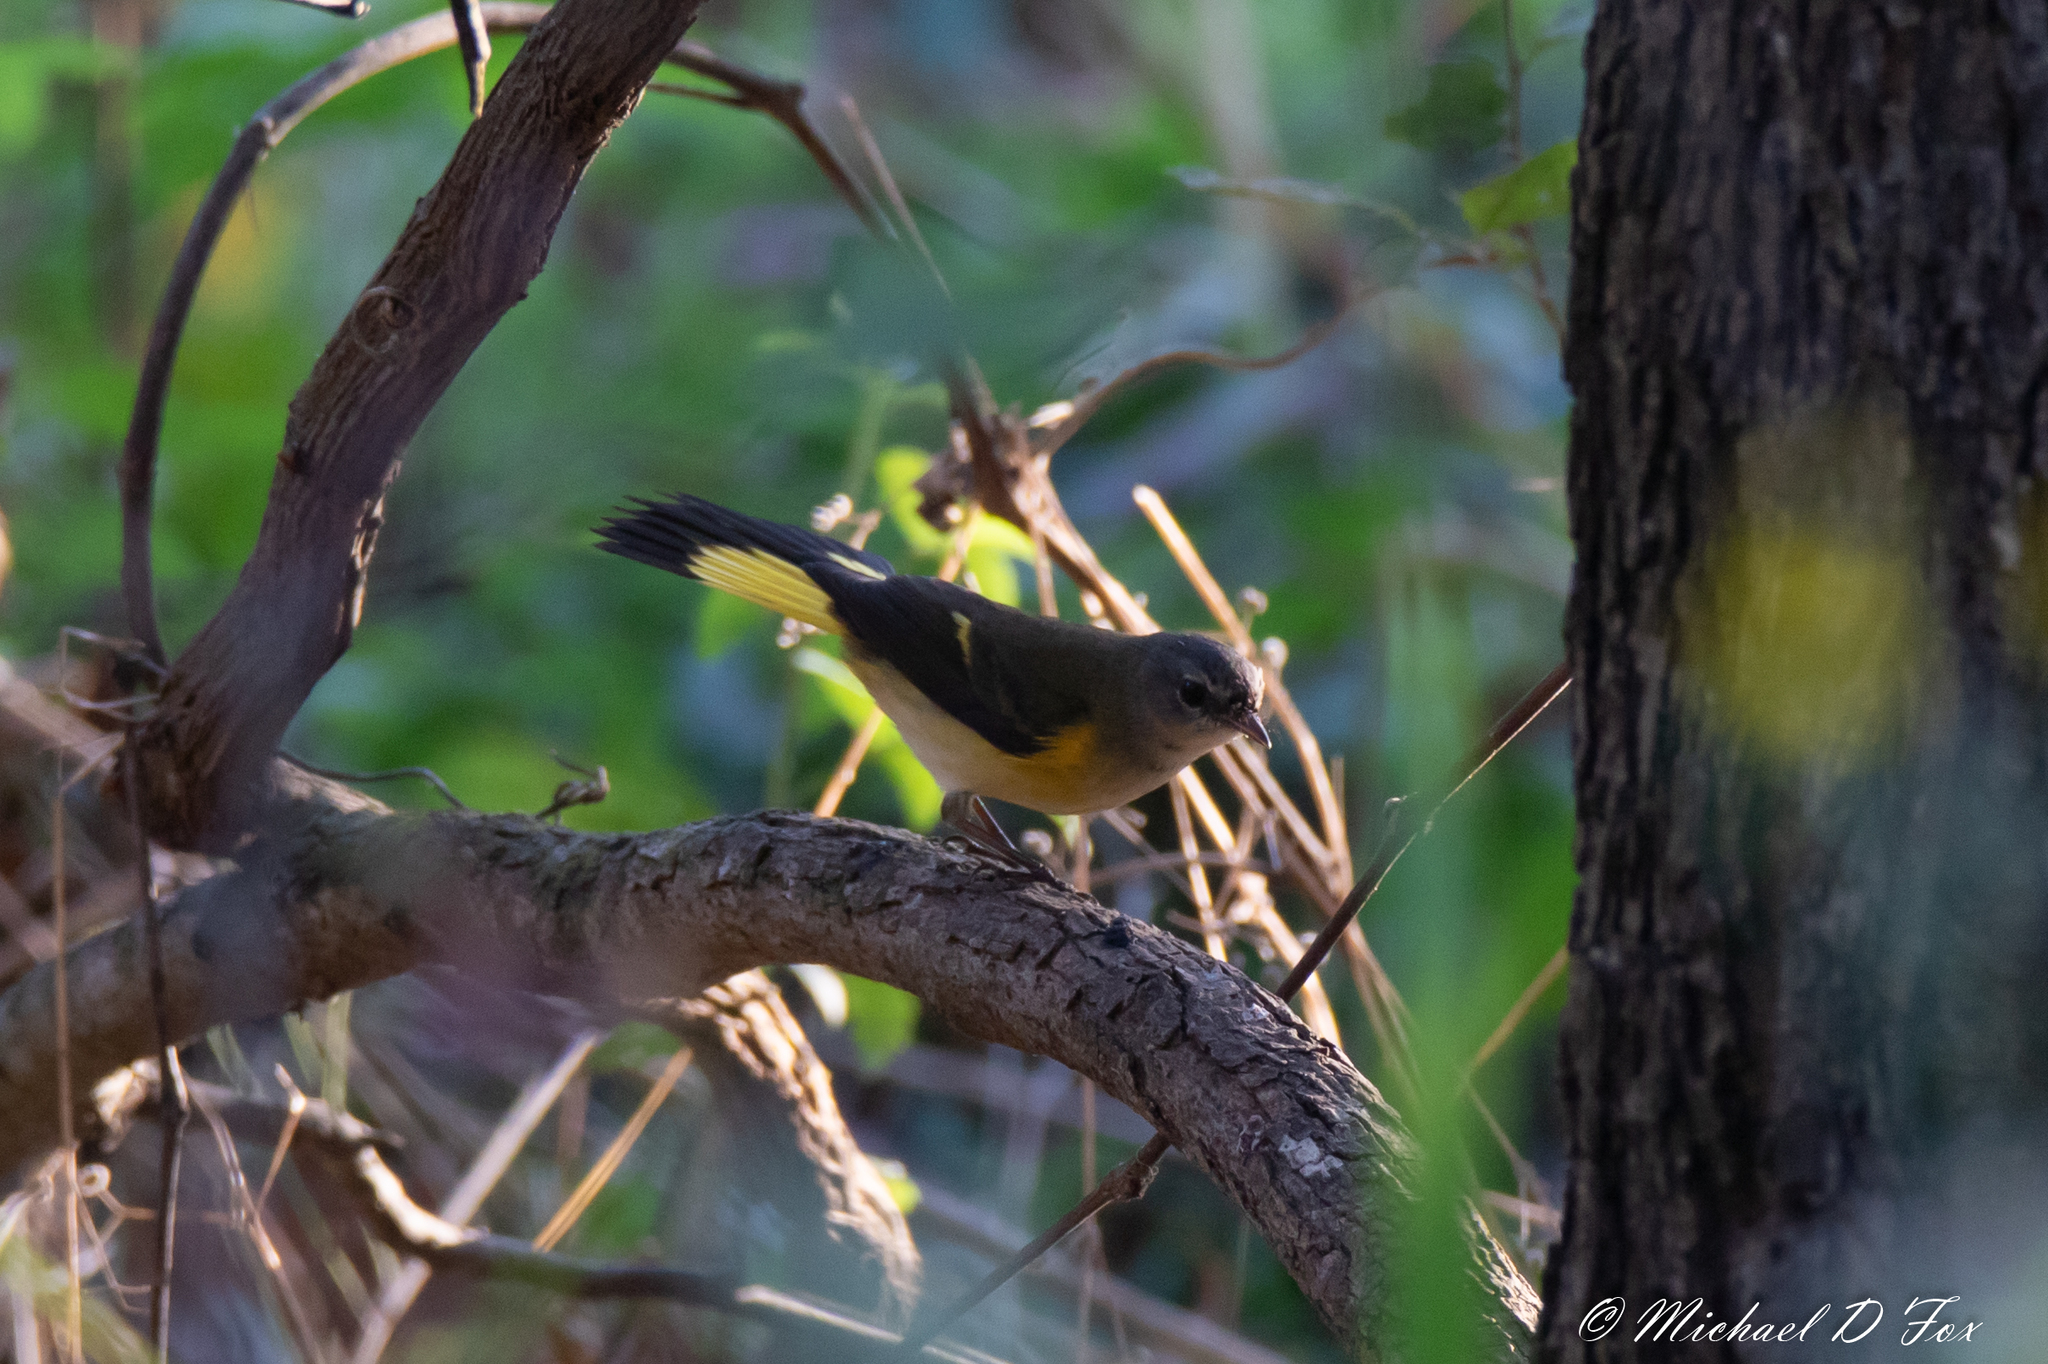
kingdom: Animalia
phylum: Chordata
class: Aves
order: Passeriformes
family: Parulidae
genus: Setophaga
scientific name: Setophaga ruticilla
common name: American redstart
